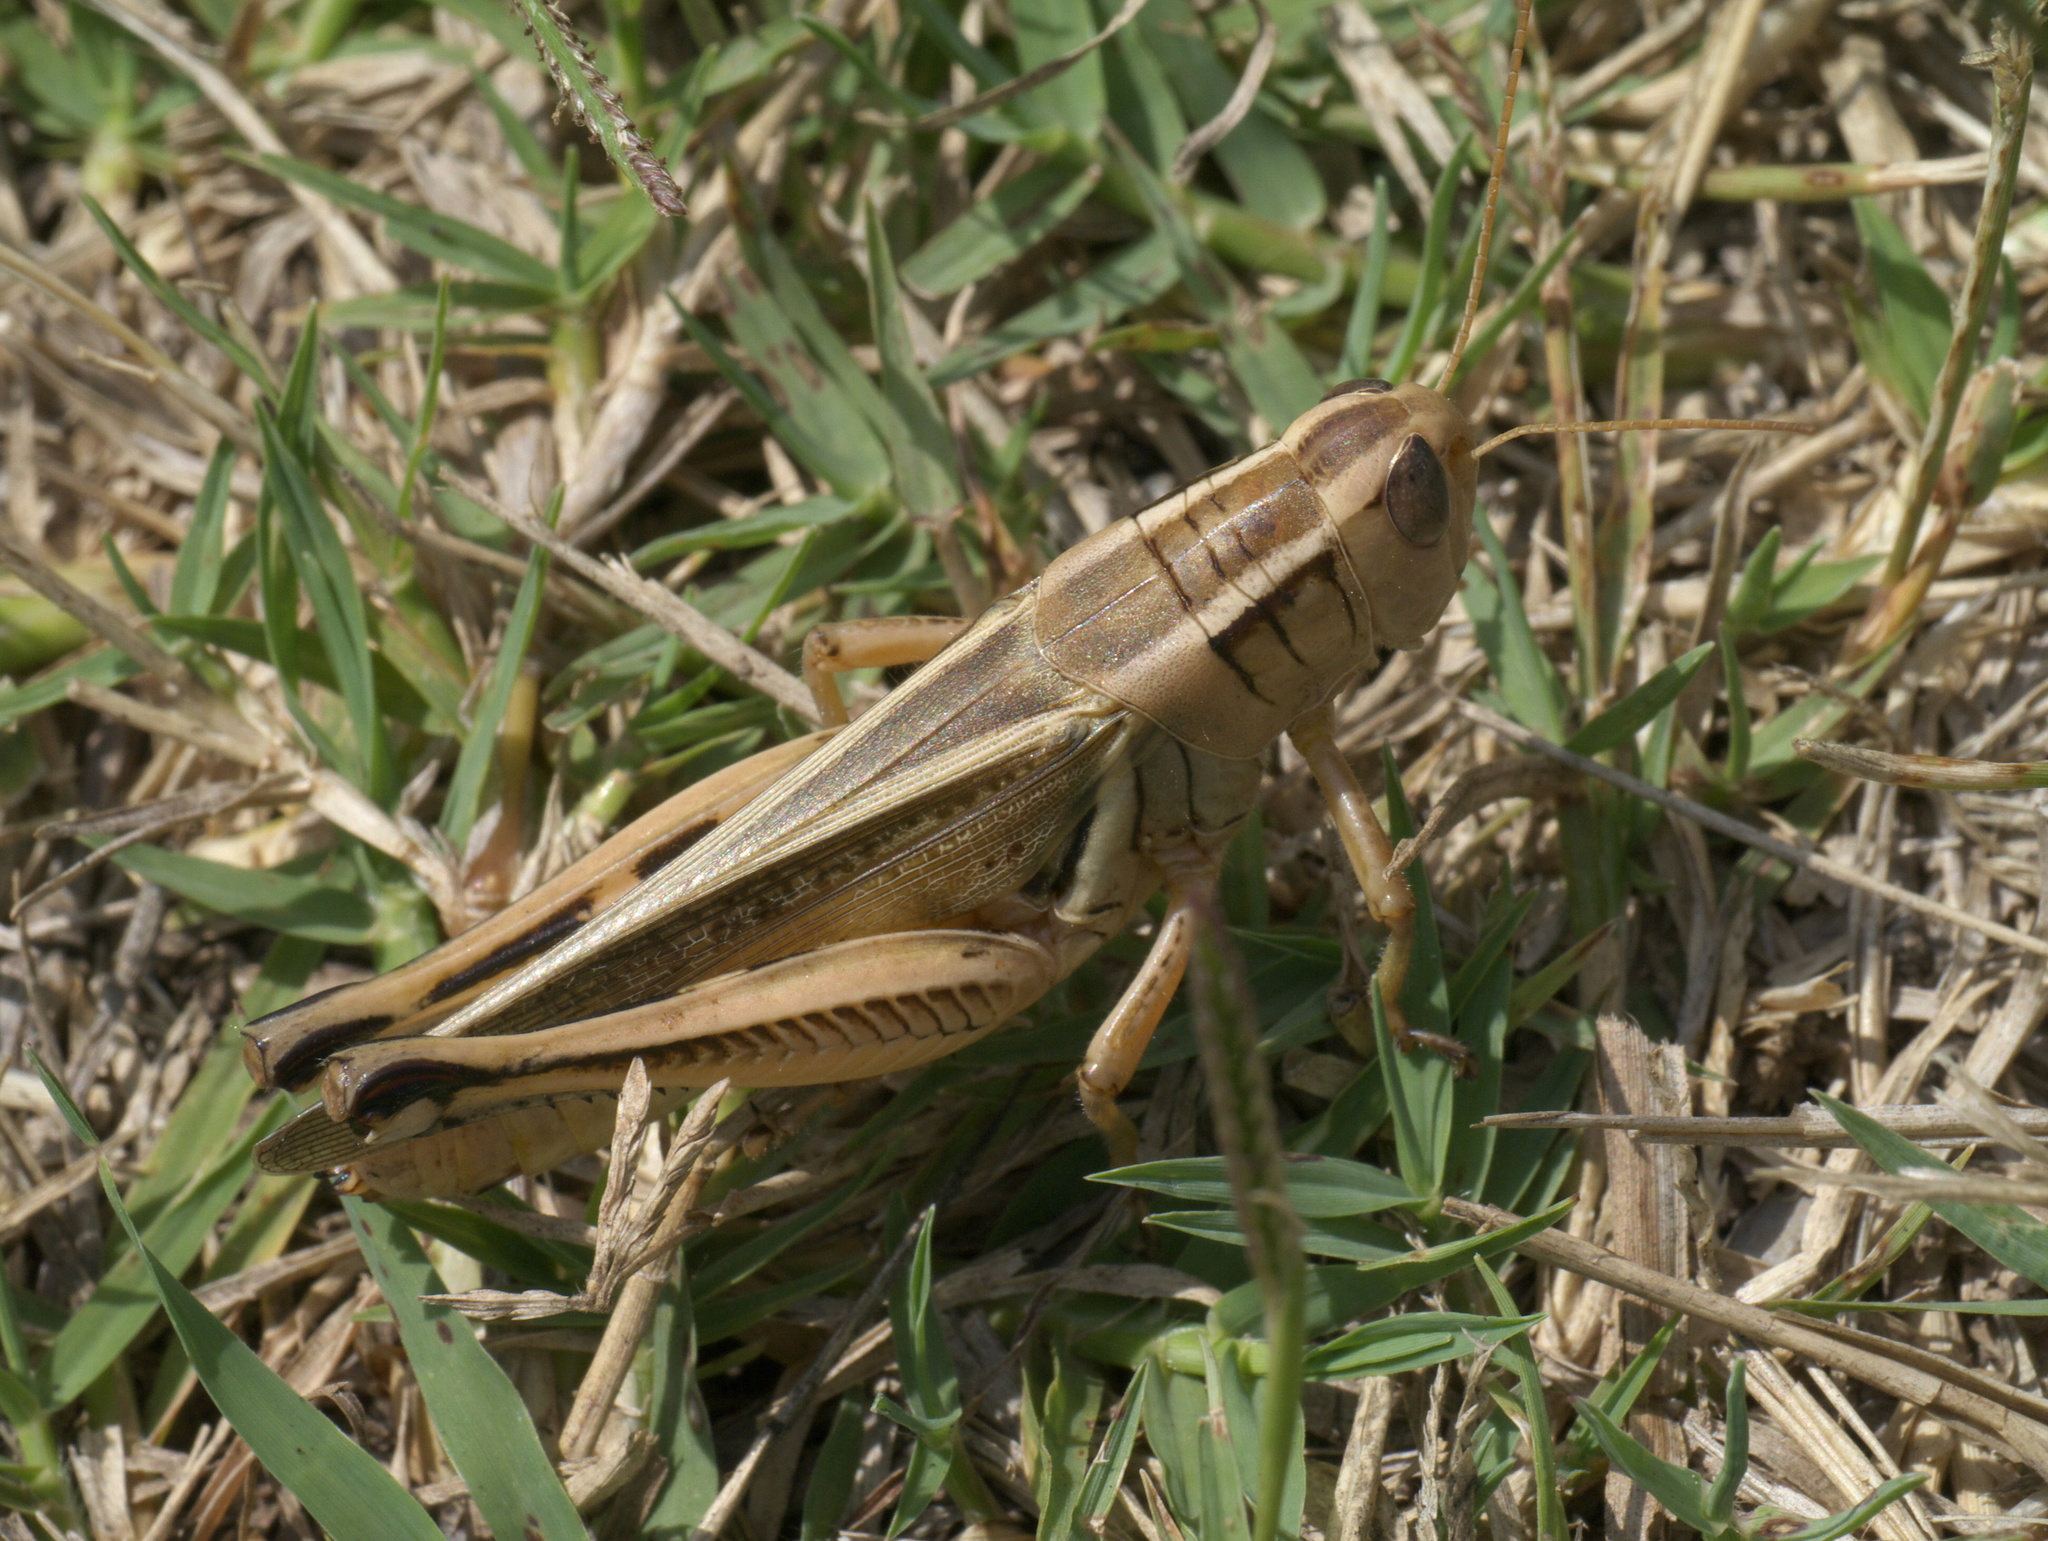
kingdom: Animalia
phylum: Arthropoda
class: Insecta
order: Orthoptera
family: Acrididae
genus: Melanoplus
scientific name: Melanoplus bivittatus
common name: Two-striped grasshopper
